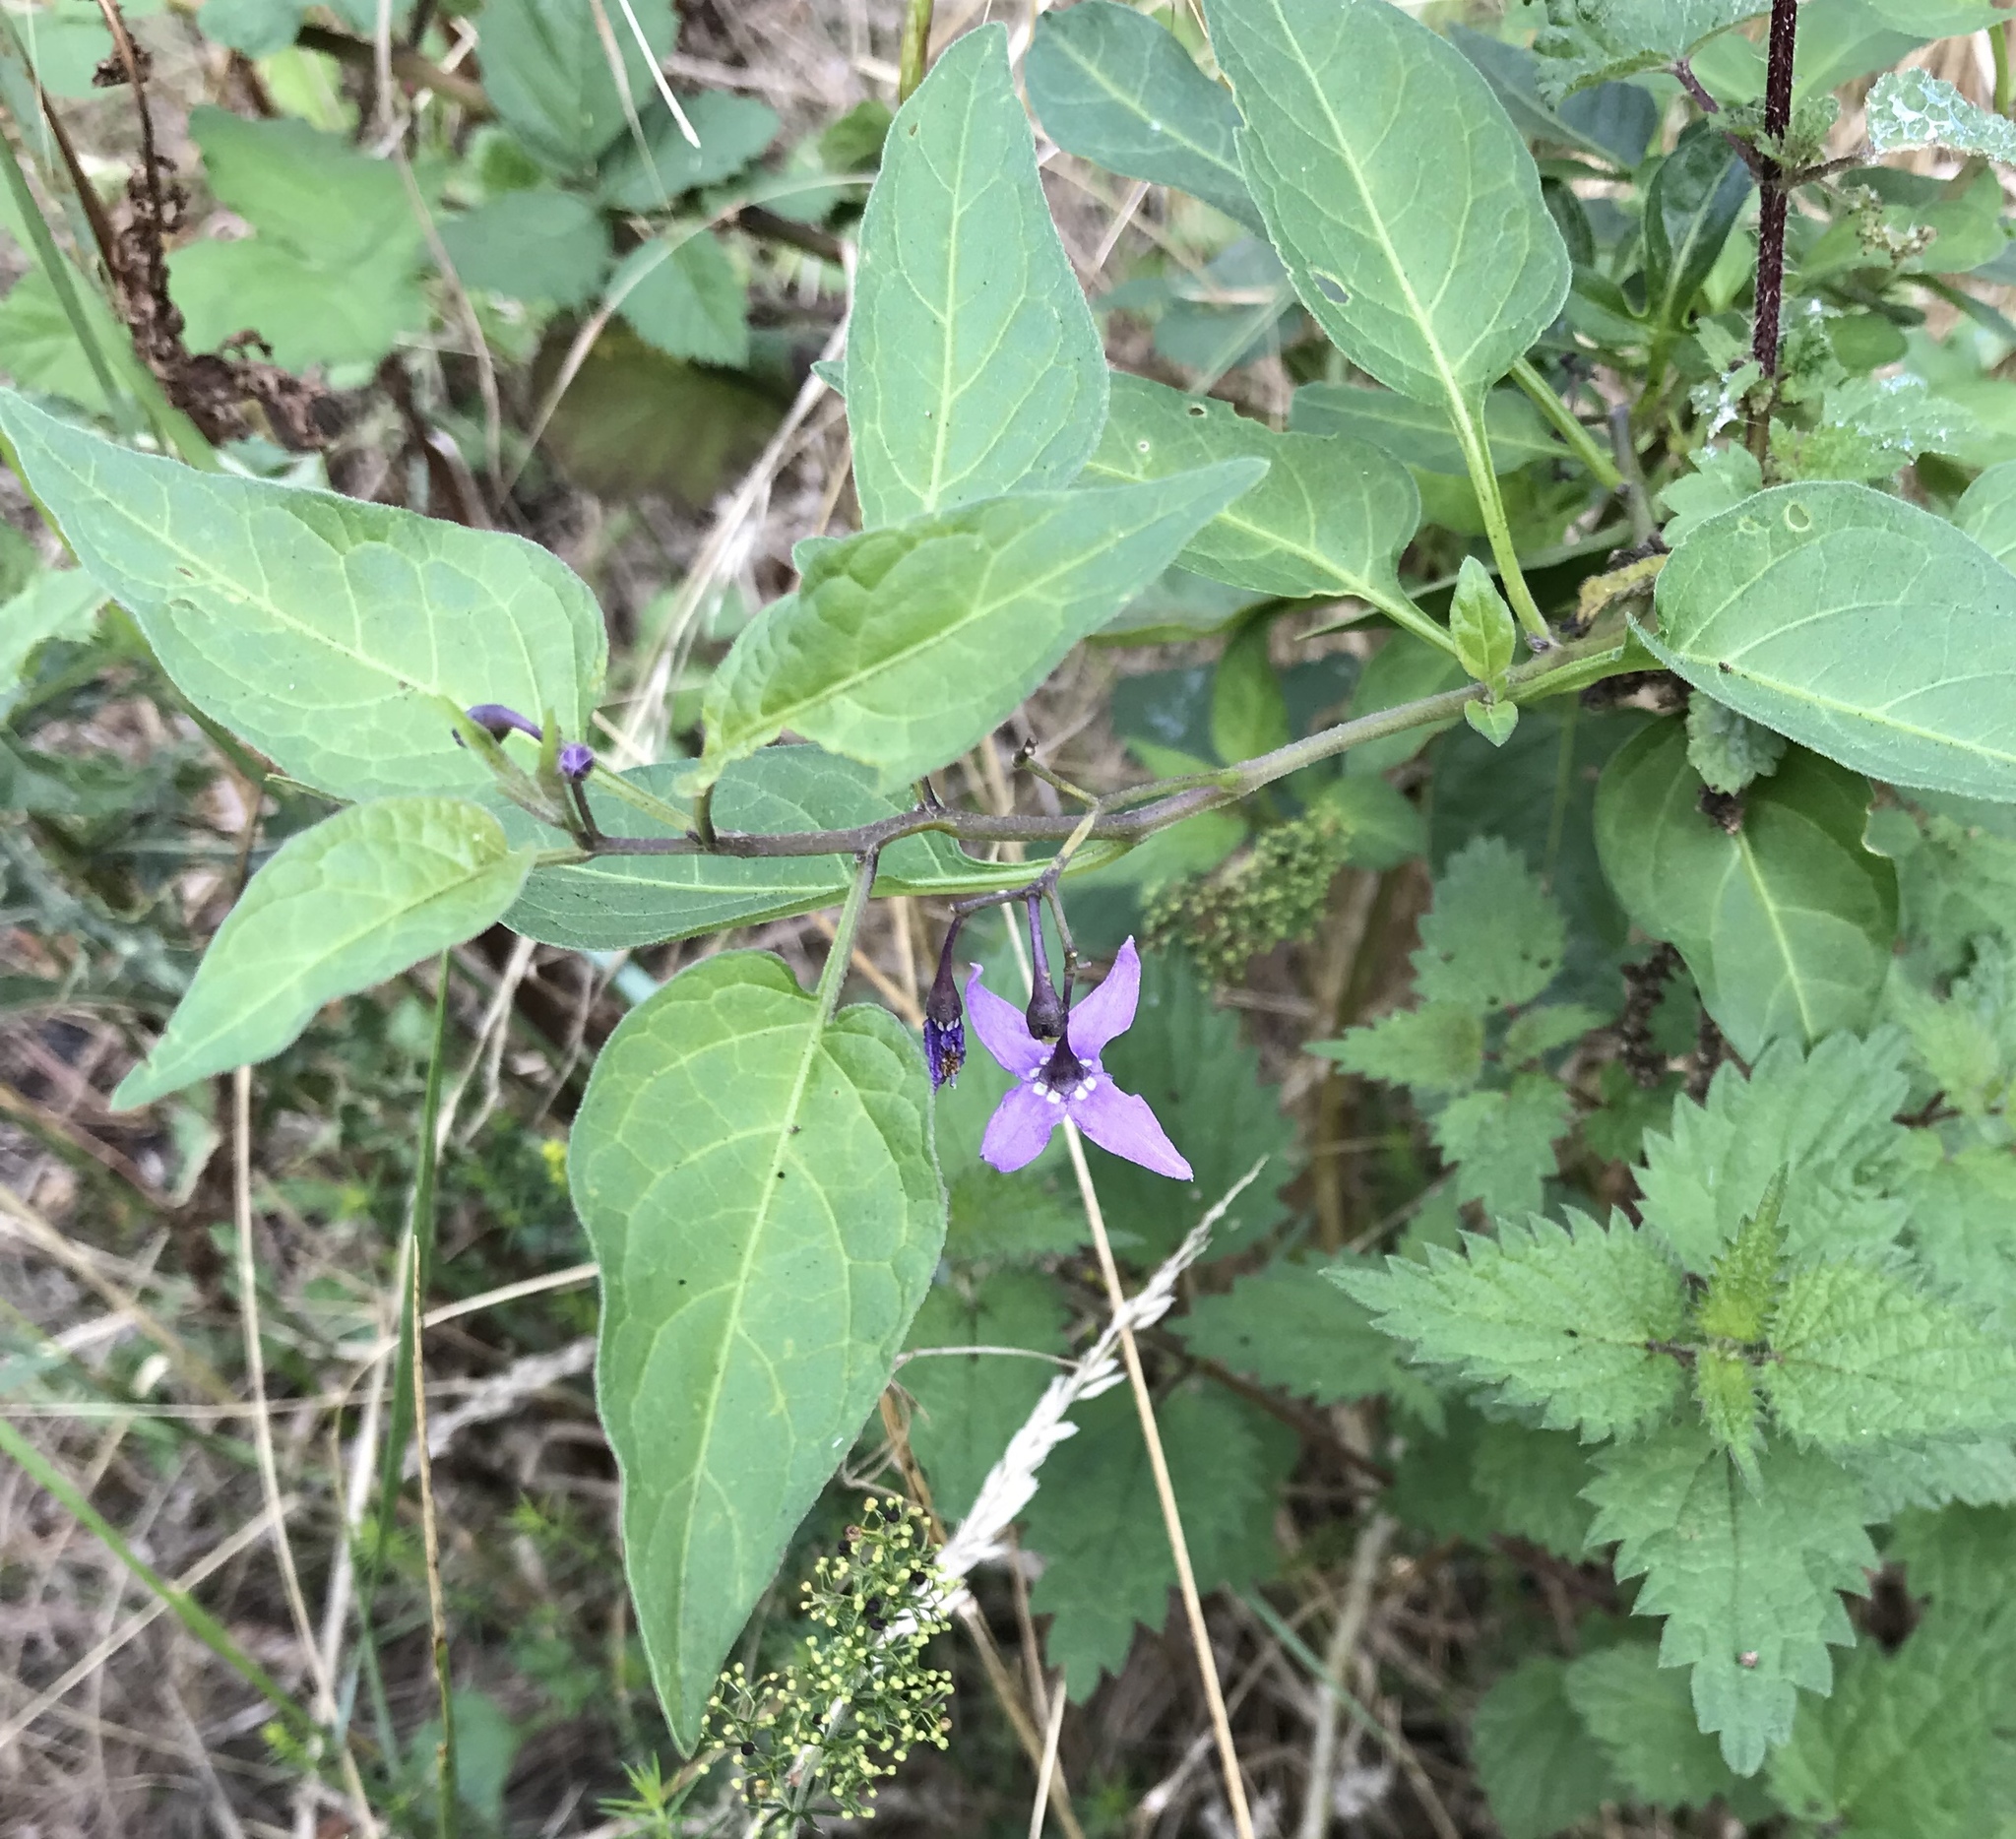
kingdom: Plantae
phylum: Tracheophyta
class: Magnoliopsida
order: Solanales
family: Solanaceae
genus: Solanum
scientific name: Solanum dulcamara
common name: Climbing nightshade
